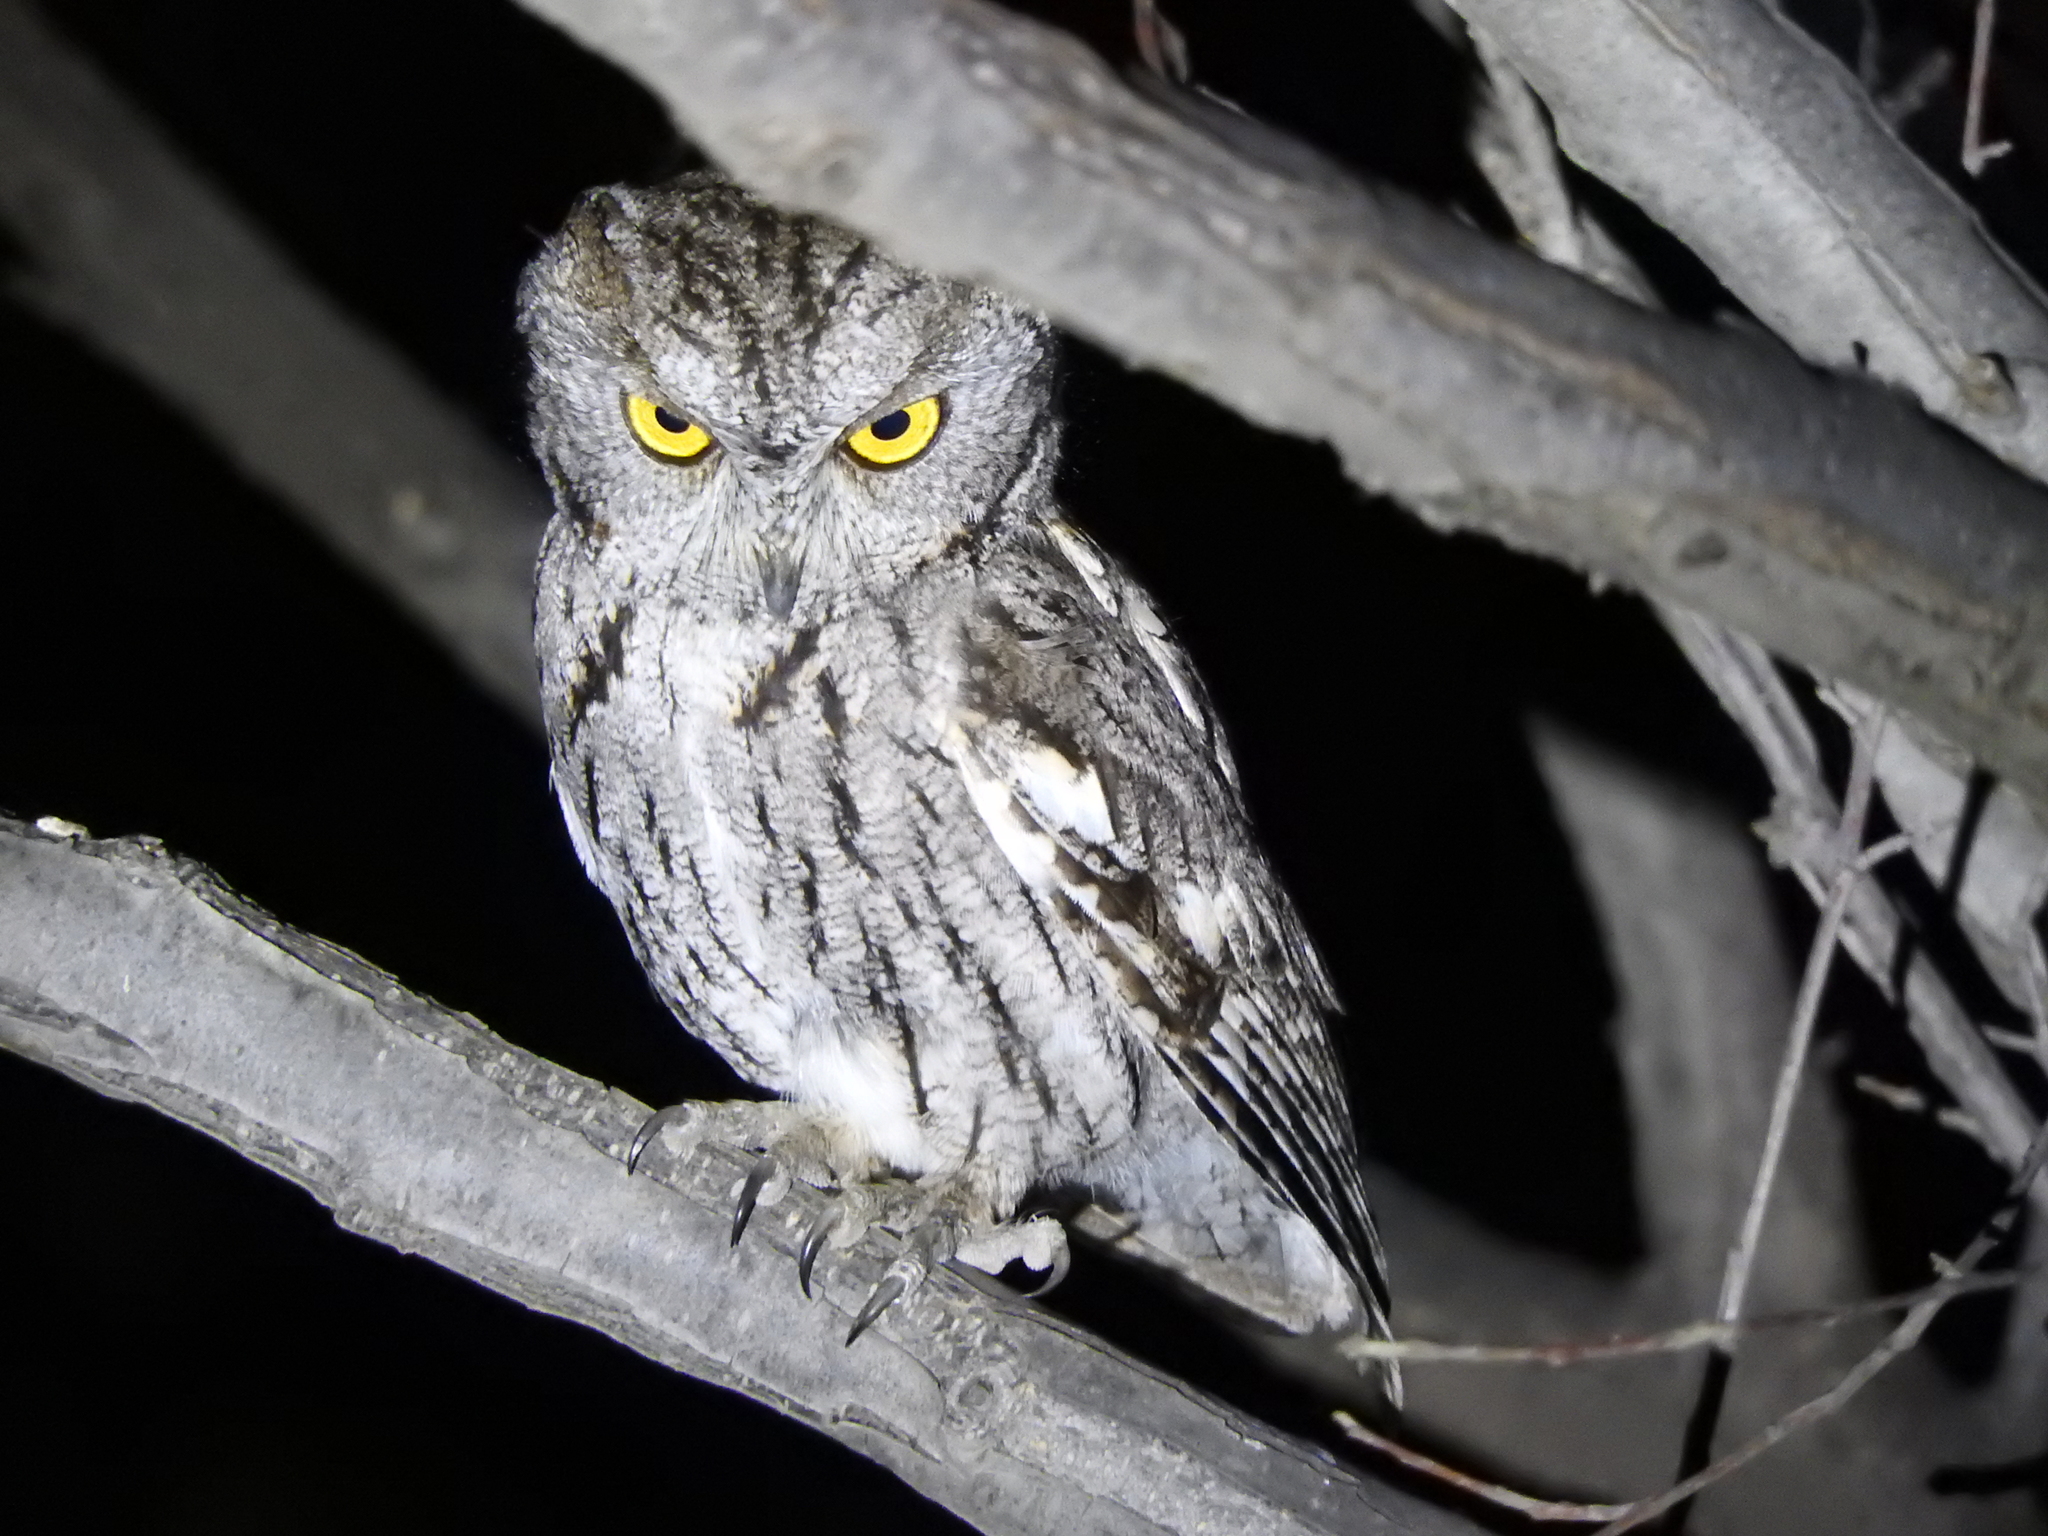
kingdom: Animalia
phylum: Chordata
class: Aves
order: Strigiformes
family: Strigidae
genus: Megascops
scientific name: Megascops kennicottii
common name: Western screech-owl
